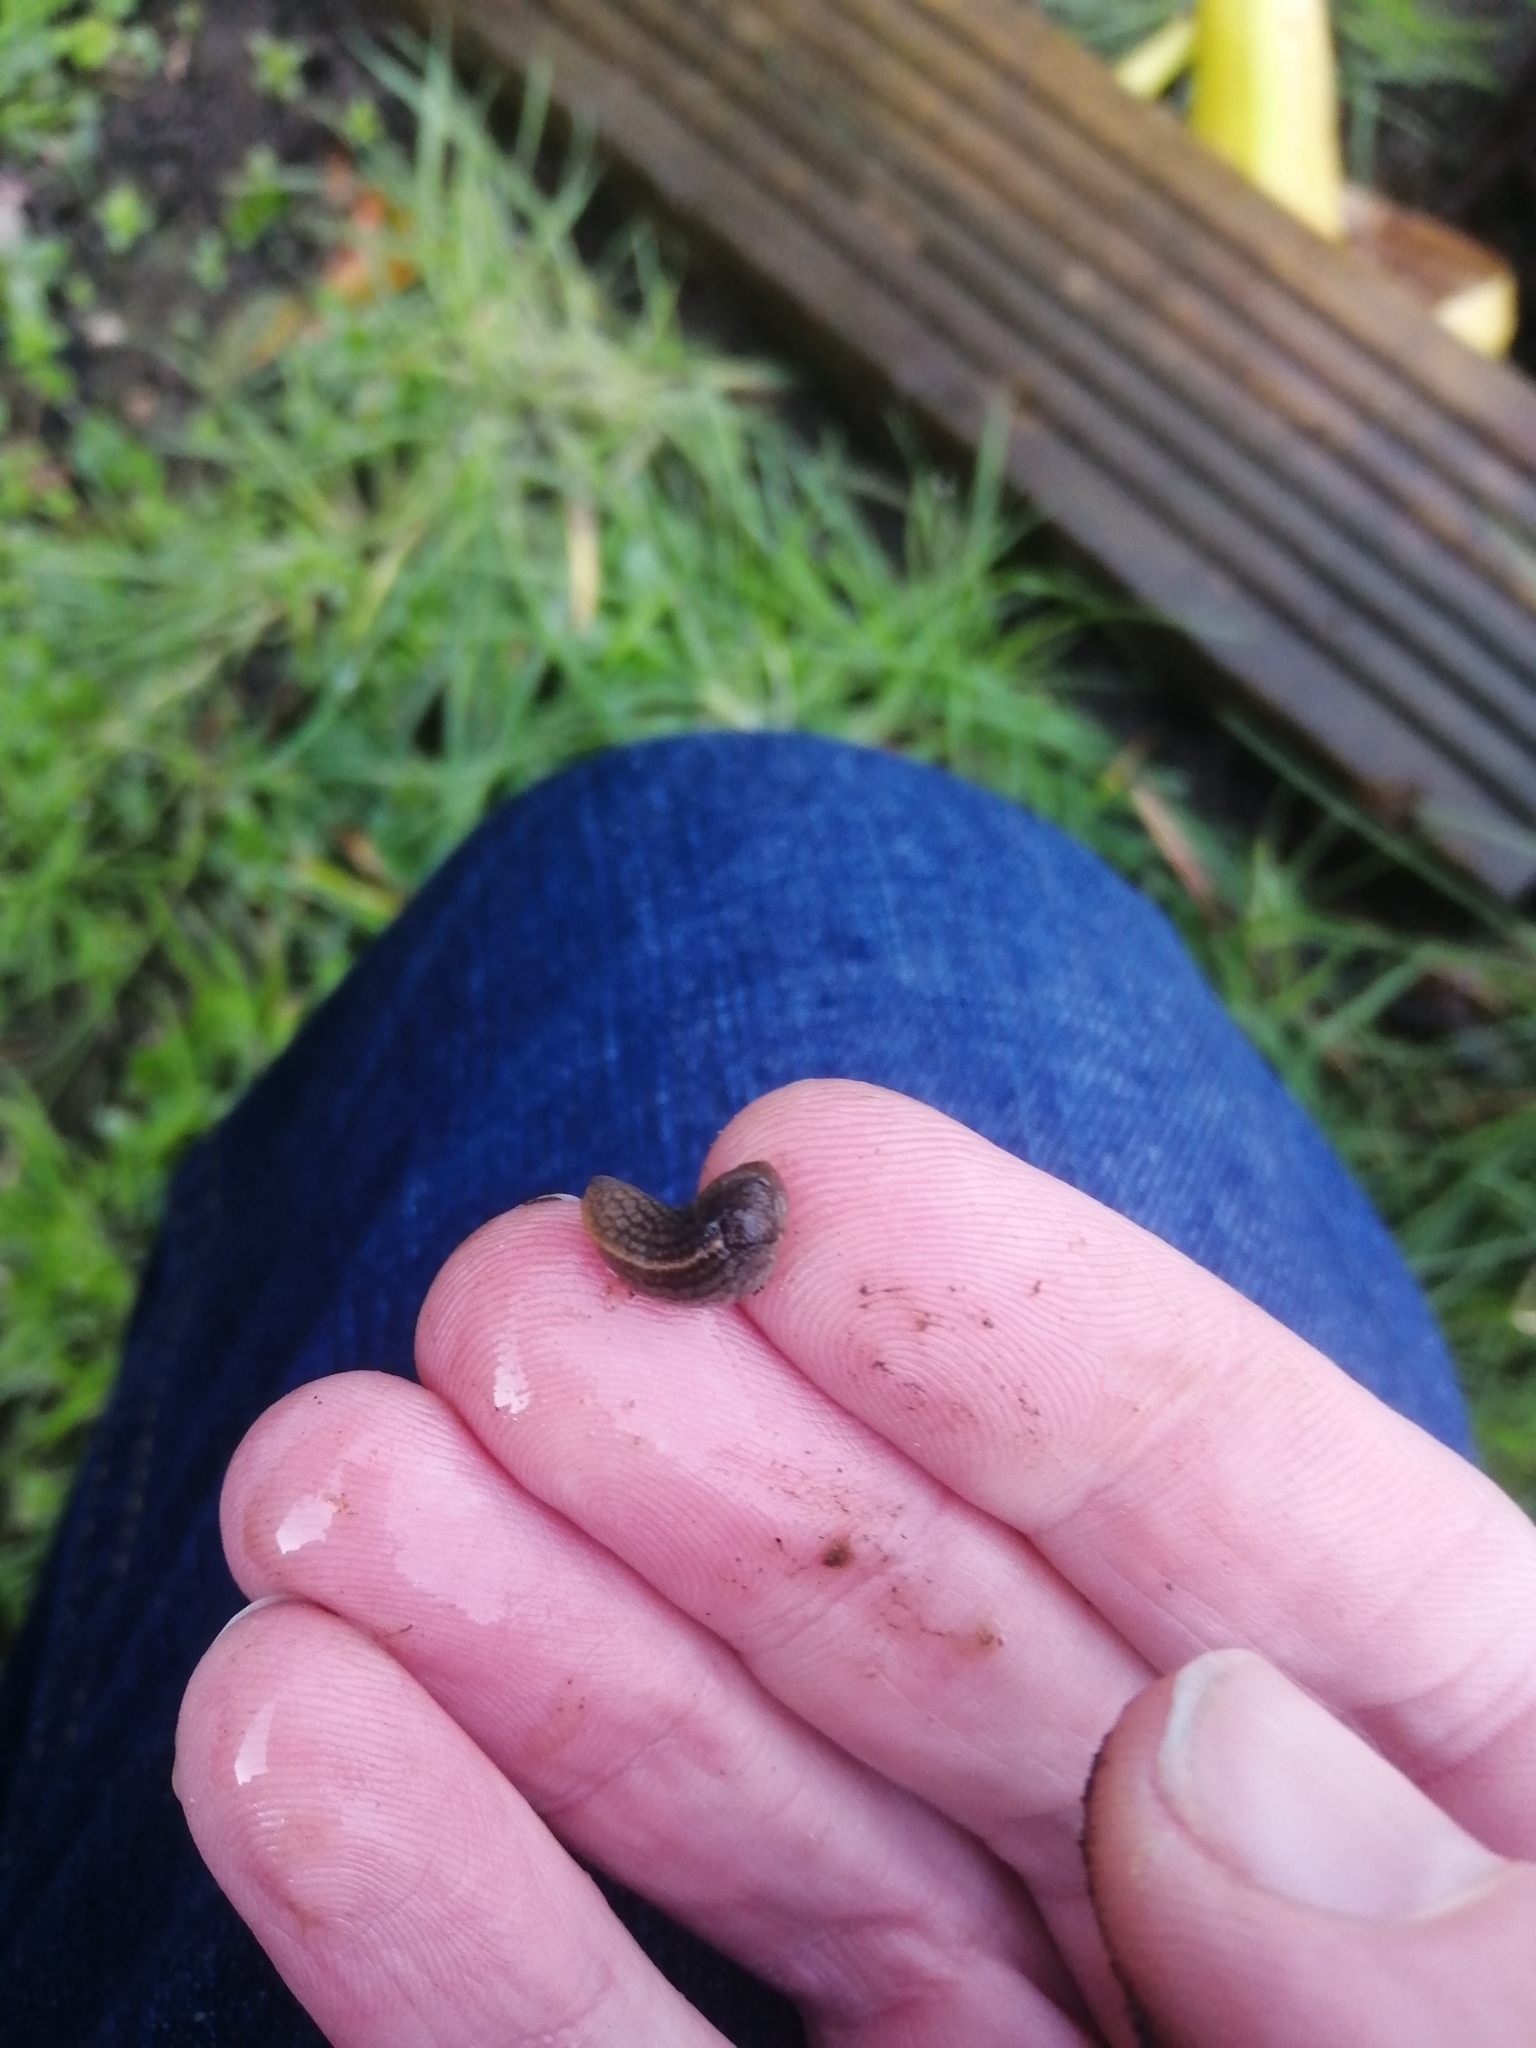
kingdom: Animalia
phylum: Mollusca
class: Gastropoda
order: Stylommatophora
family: Milacidae
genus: Tandonia
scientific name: Tandonia cristata
